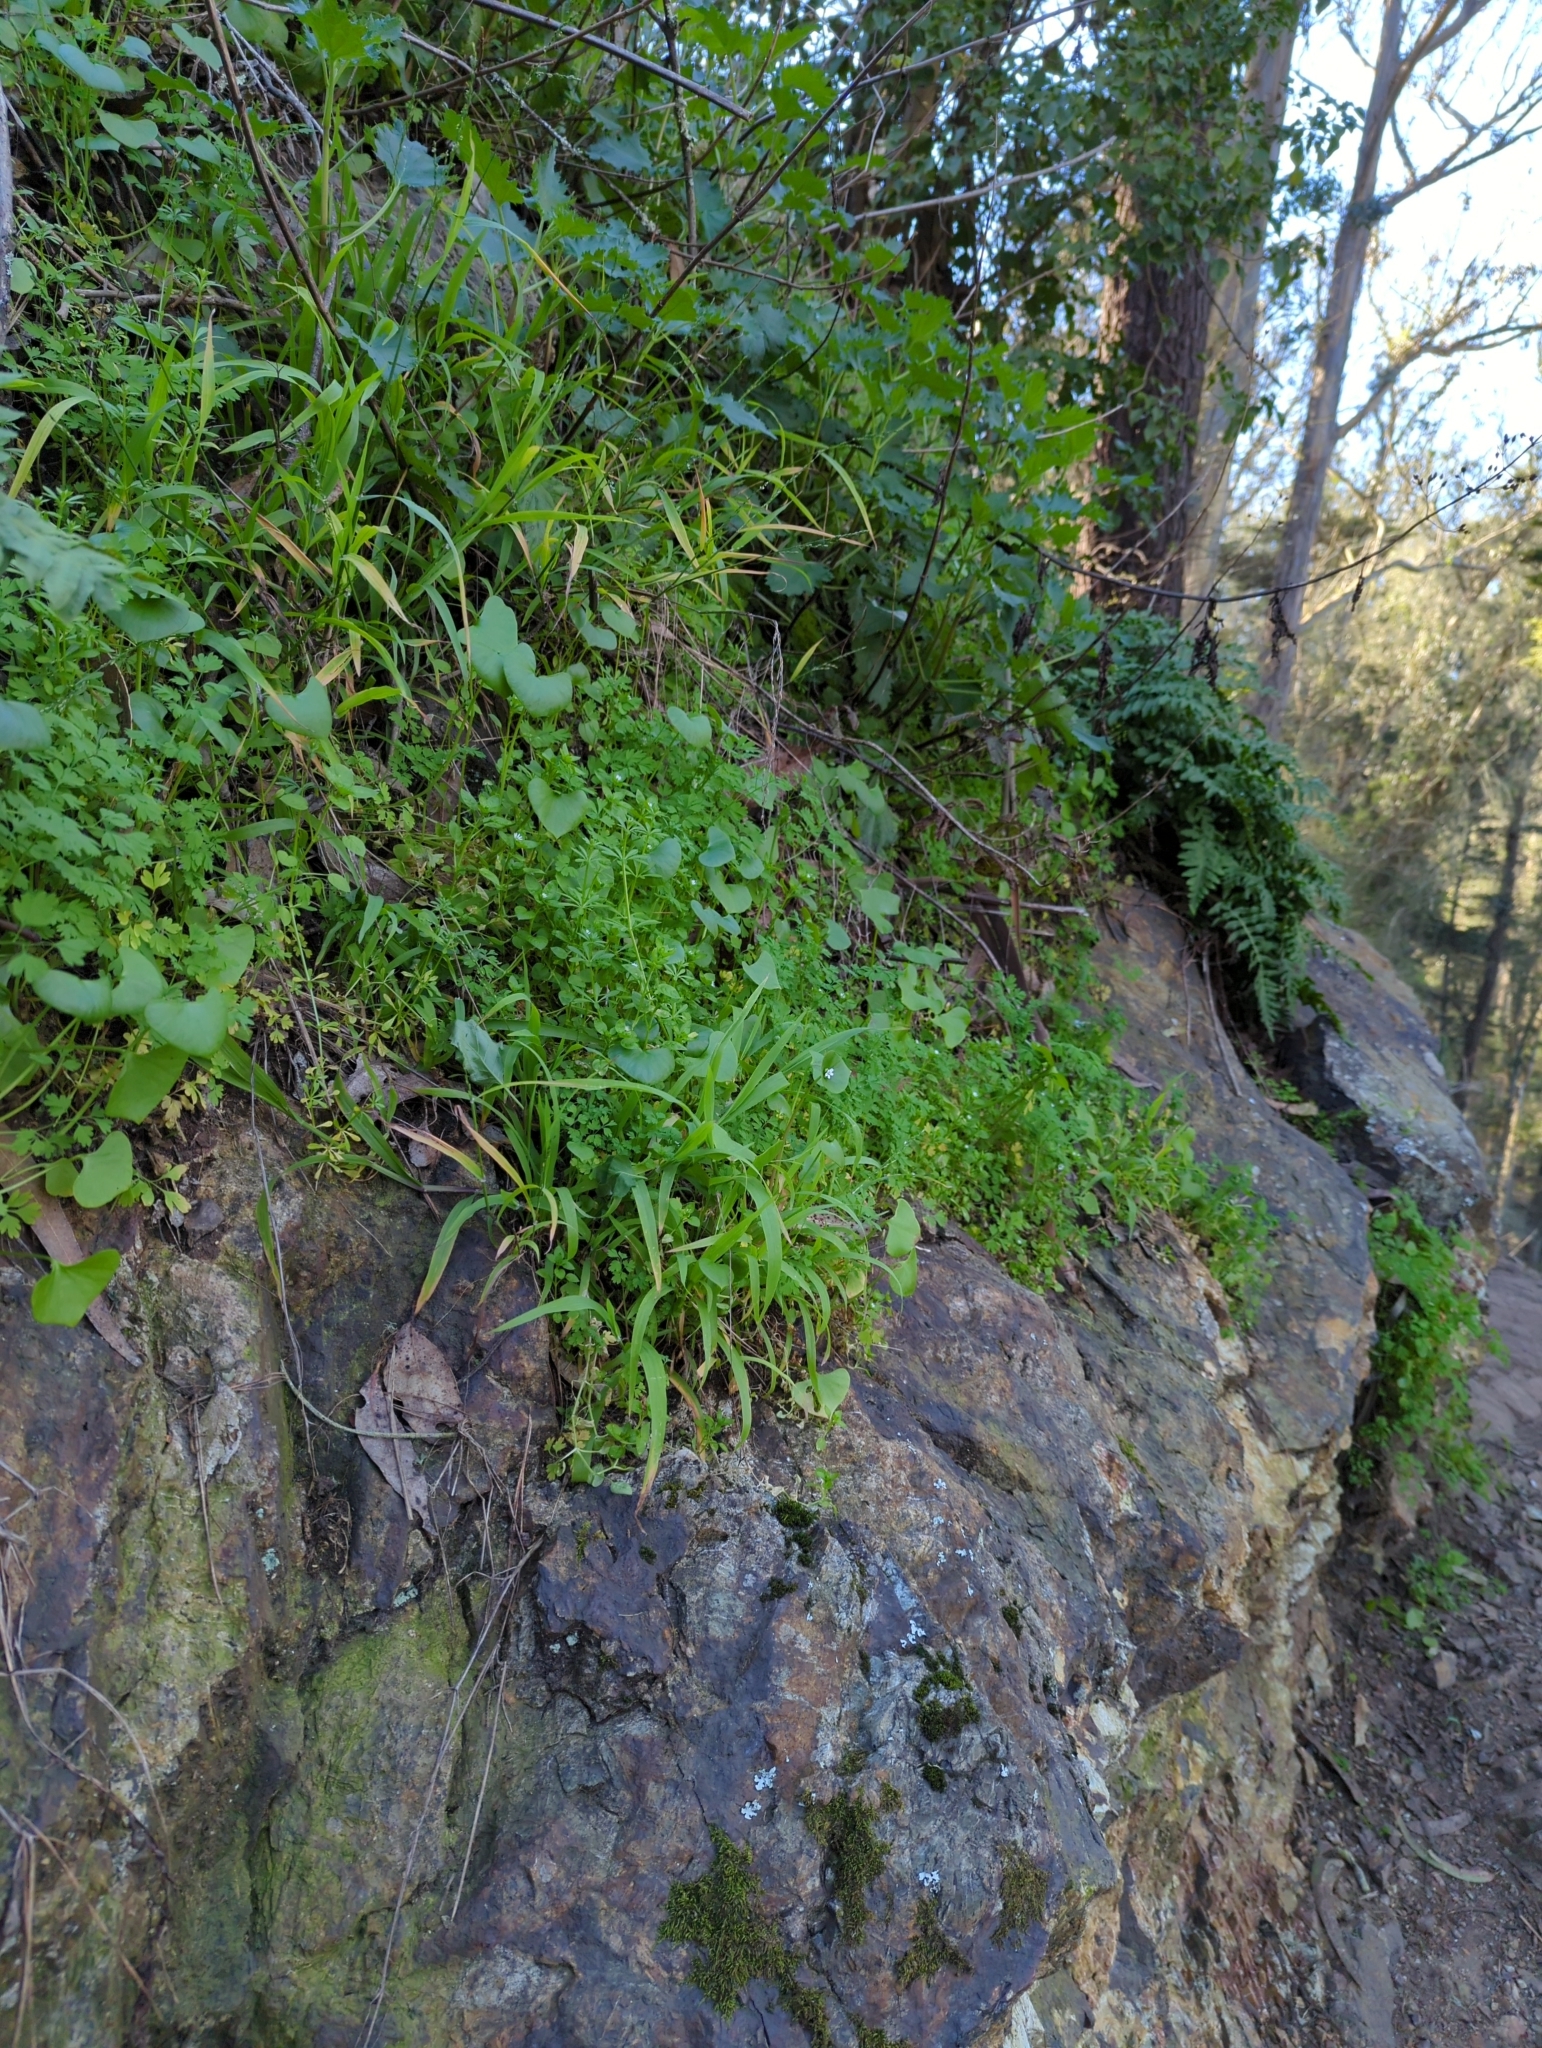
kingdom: Plantae
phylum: Tracheophyta
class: Magnoliopsida
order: Caryophyllales
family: Montiaceae
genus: Claytonia
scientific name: Claytonia perfoliata
